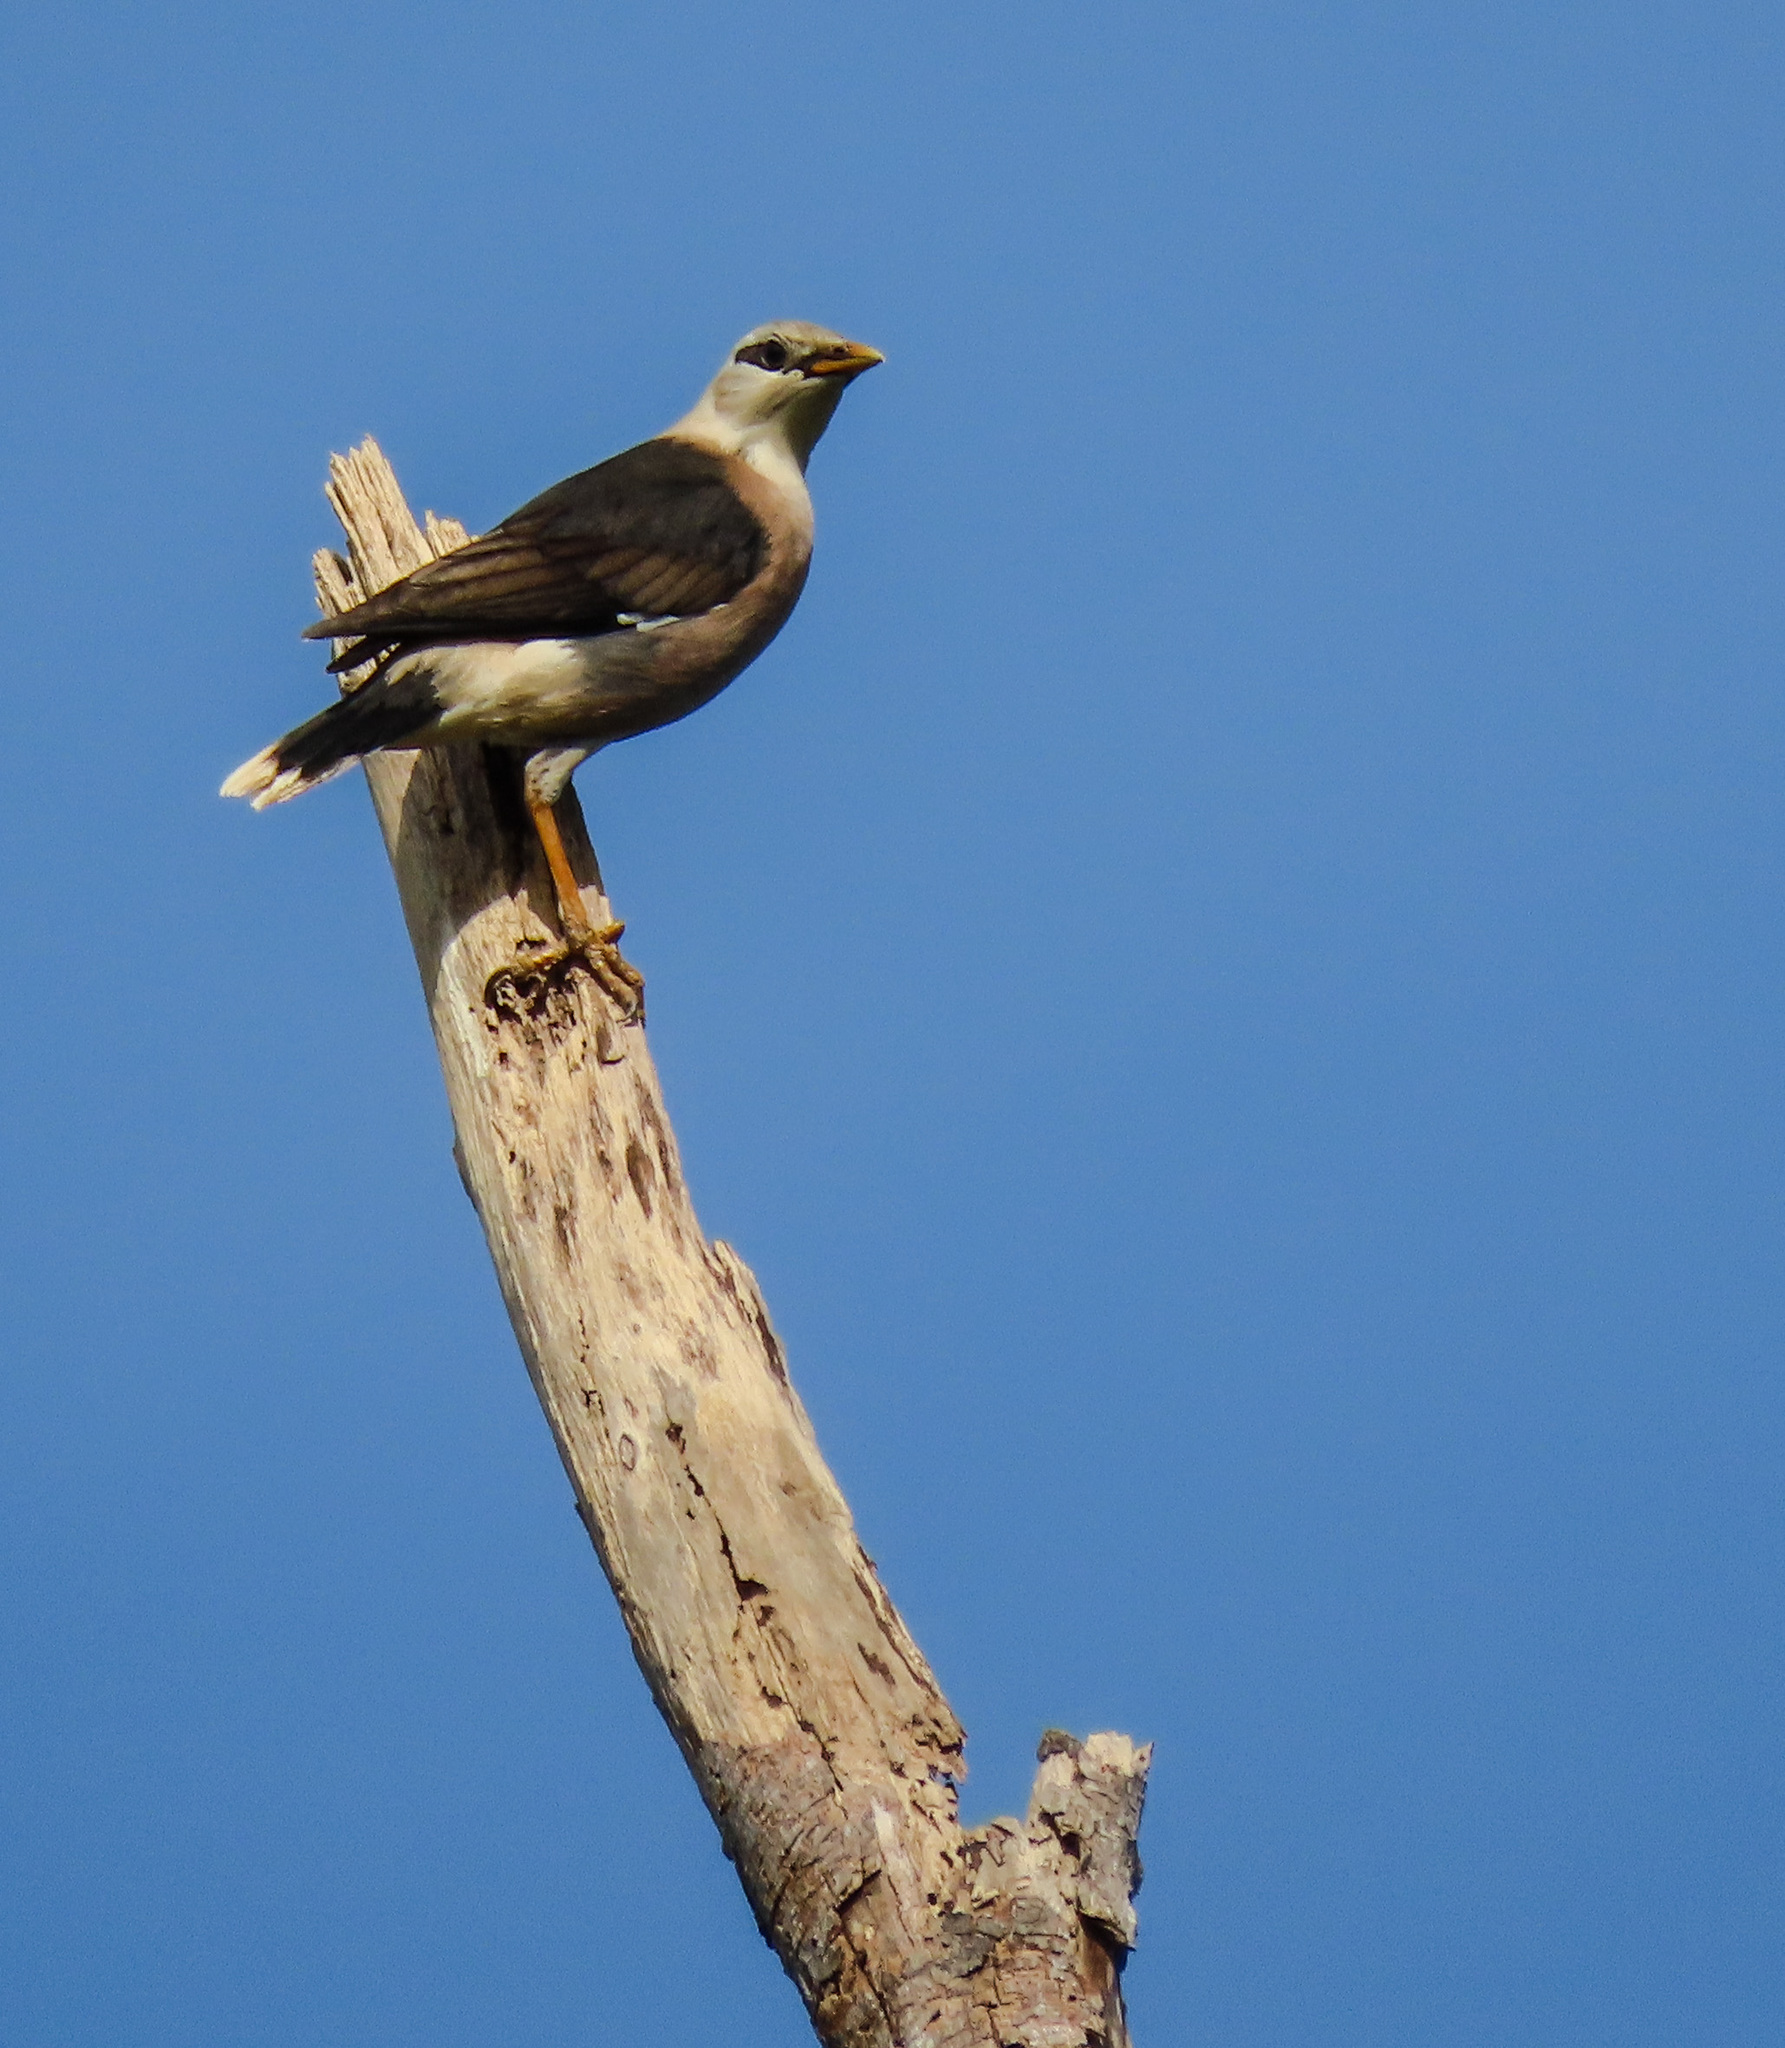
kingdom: Animalia
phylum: Chordata
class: Aves
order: Passeriformes
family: Sturnidae
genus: Acridotheres
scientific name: Acridotheres leucocephalus
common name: Vinous-breasted myna
